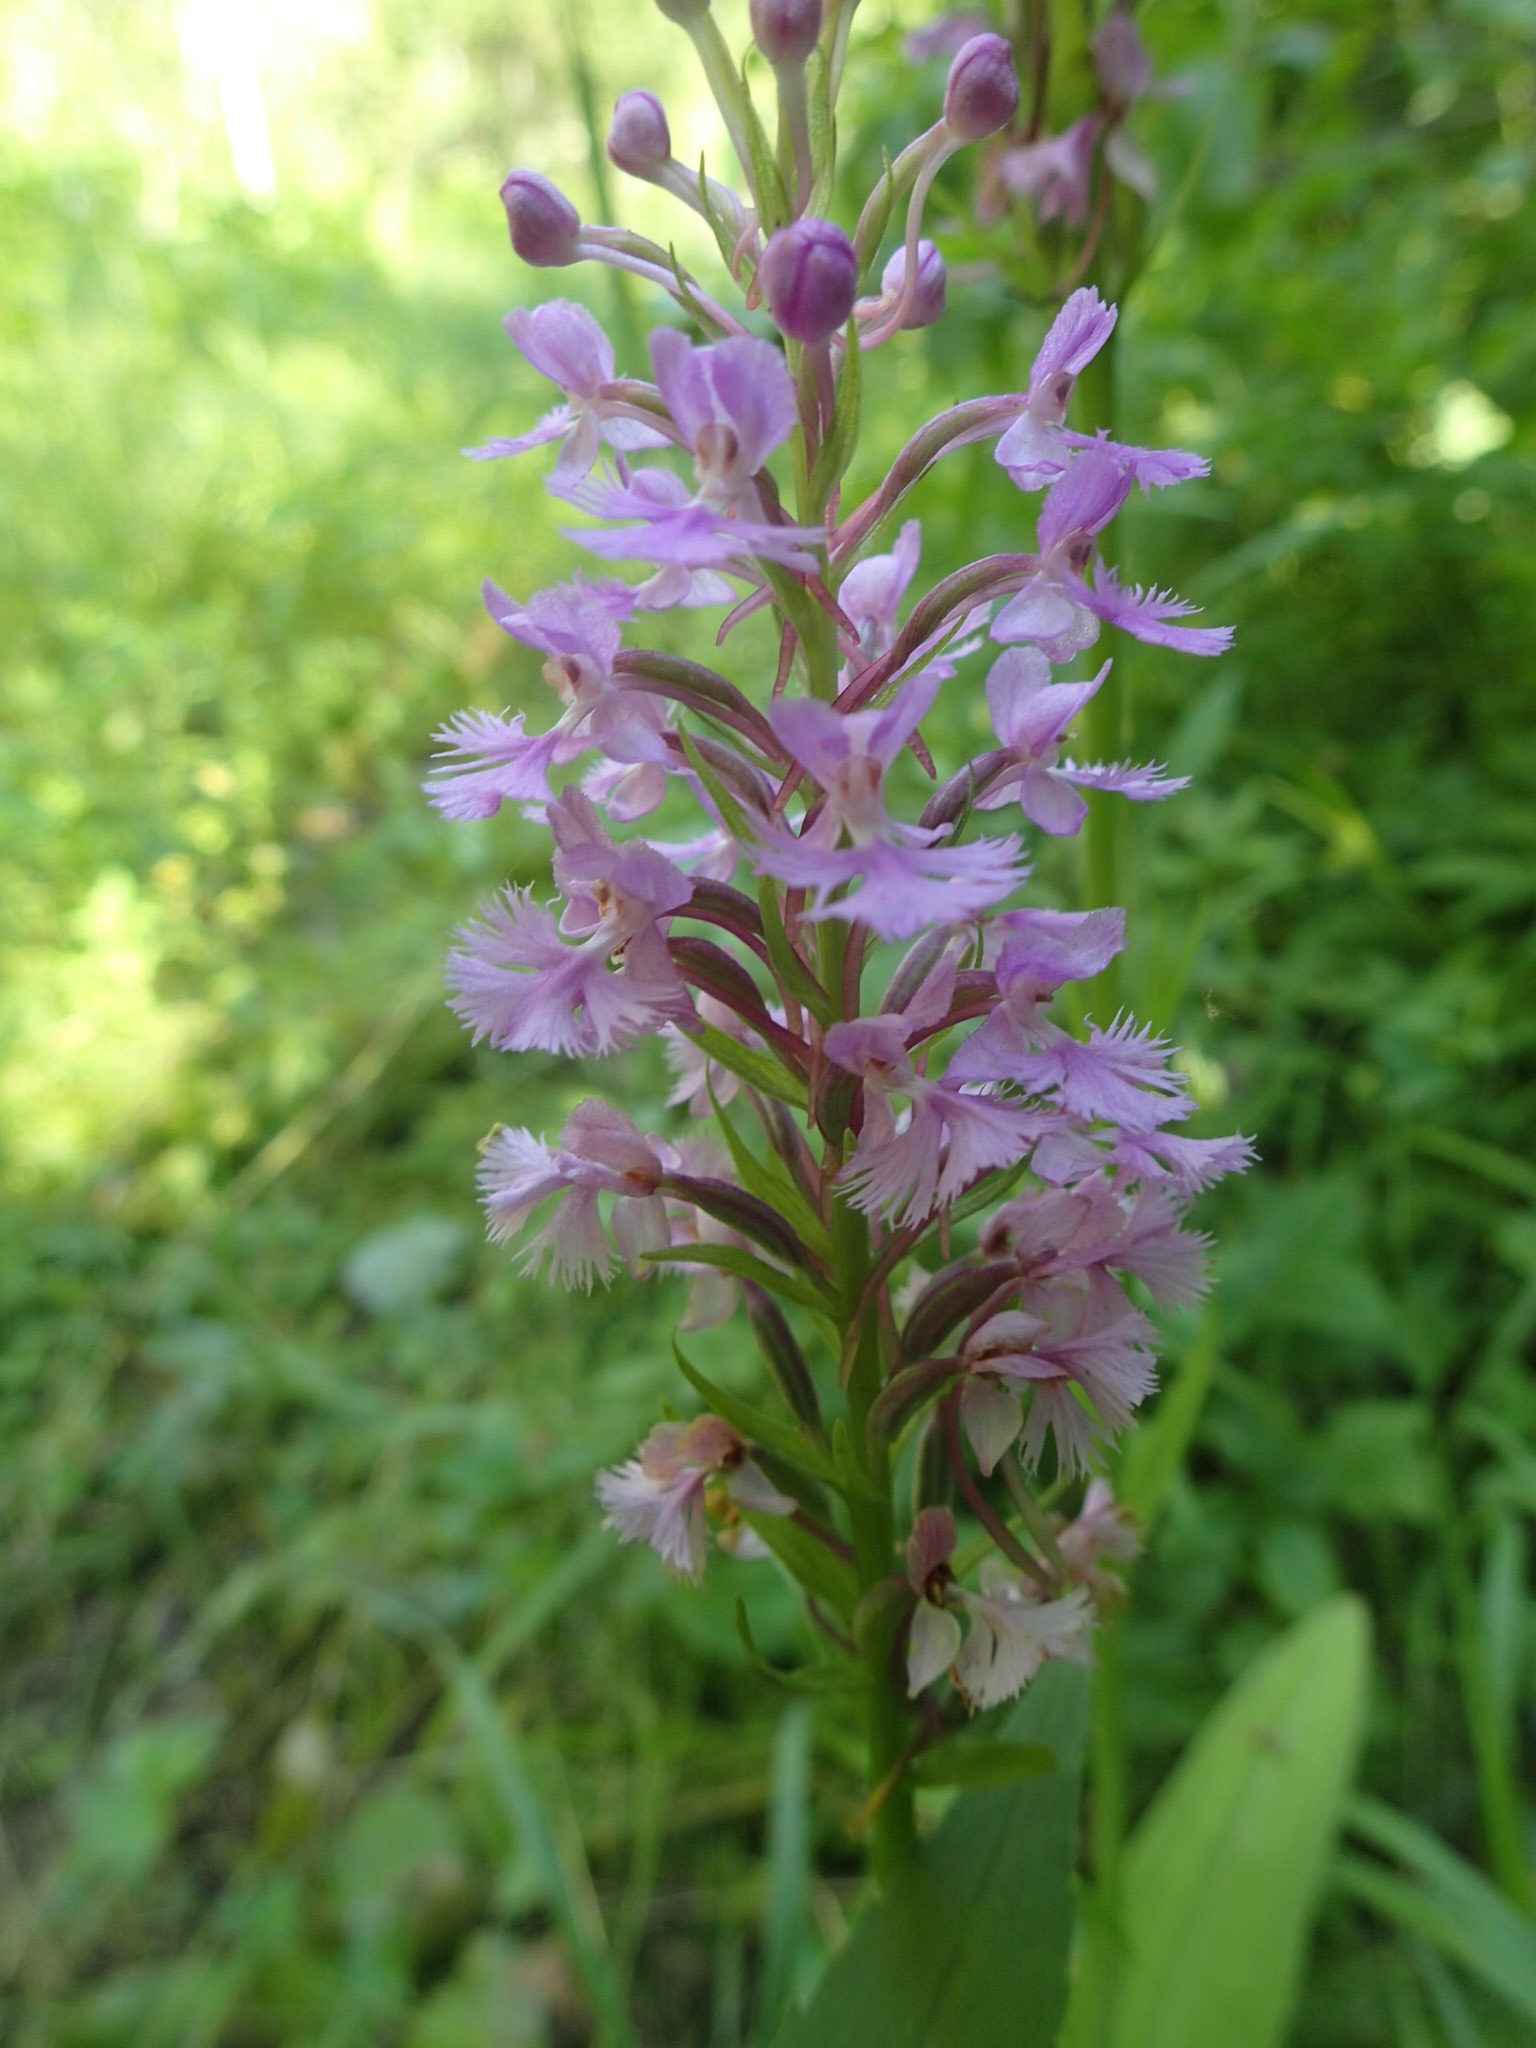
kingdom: Plantae
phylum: Tracheophyta
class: Liliopsida
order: Asparagales
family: Orchidaceae
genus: Platanthera
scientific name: Platanthera psycodes
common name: Lesser purple fringed orchid
